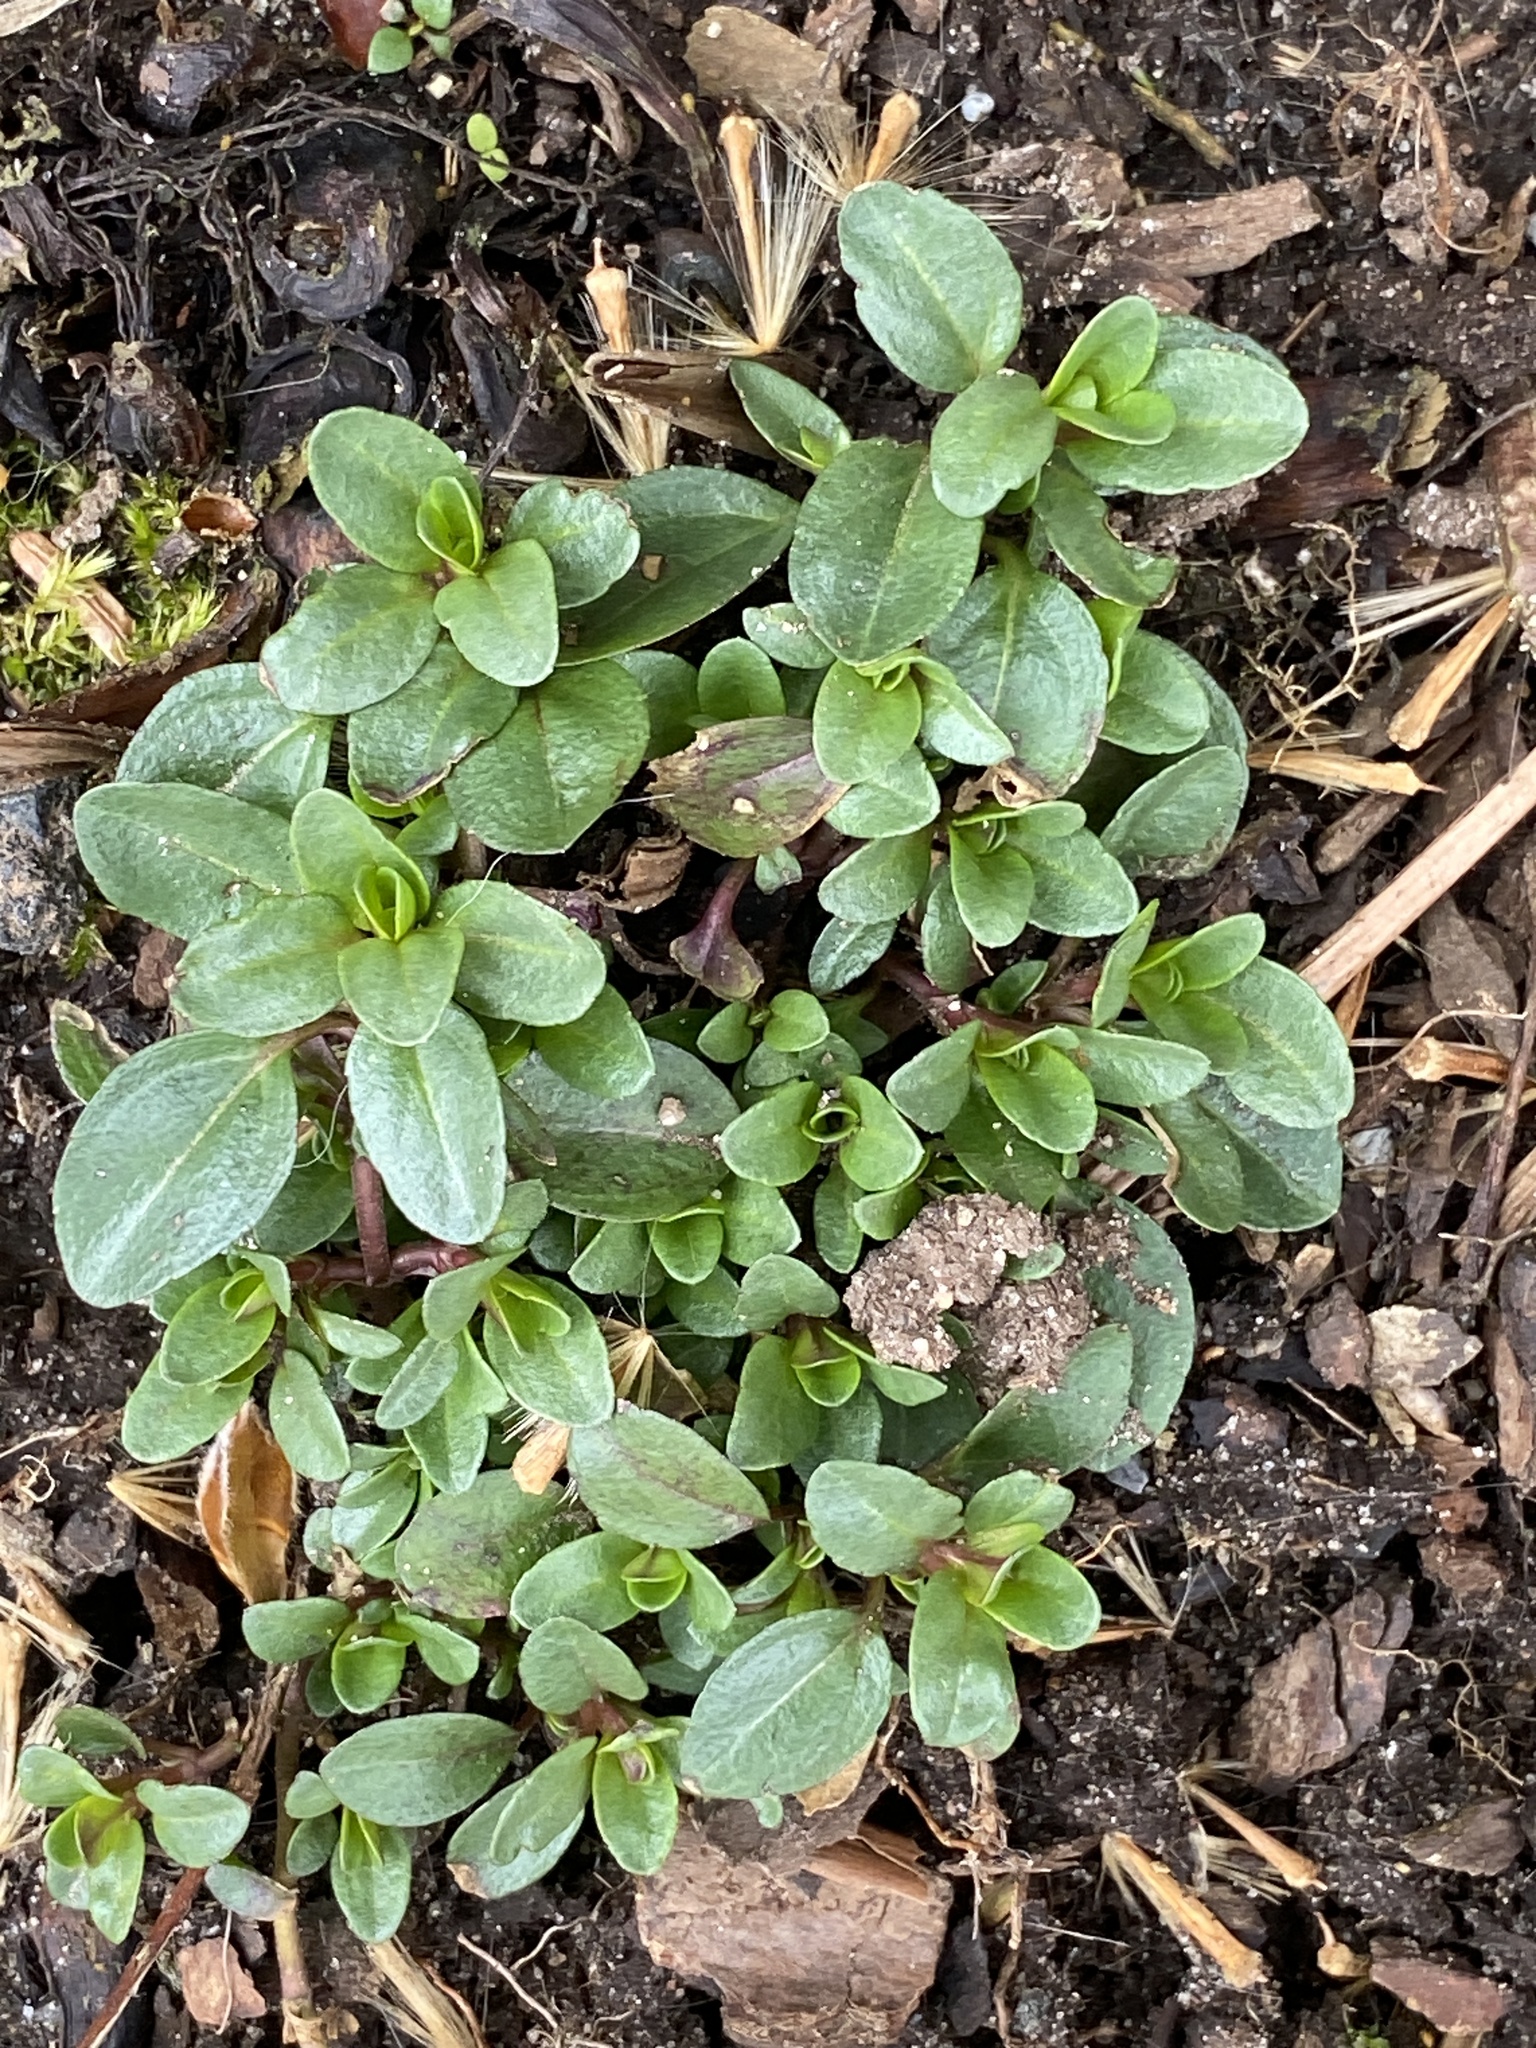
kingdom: Plantae
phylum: Tracheophyta
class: Magnoliopsida
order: Lamiales
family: Plantaginaceae
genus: Veronica
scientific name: Veronica serpyllifolia
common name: Thyme-leaved speedwell
